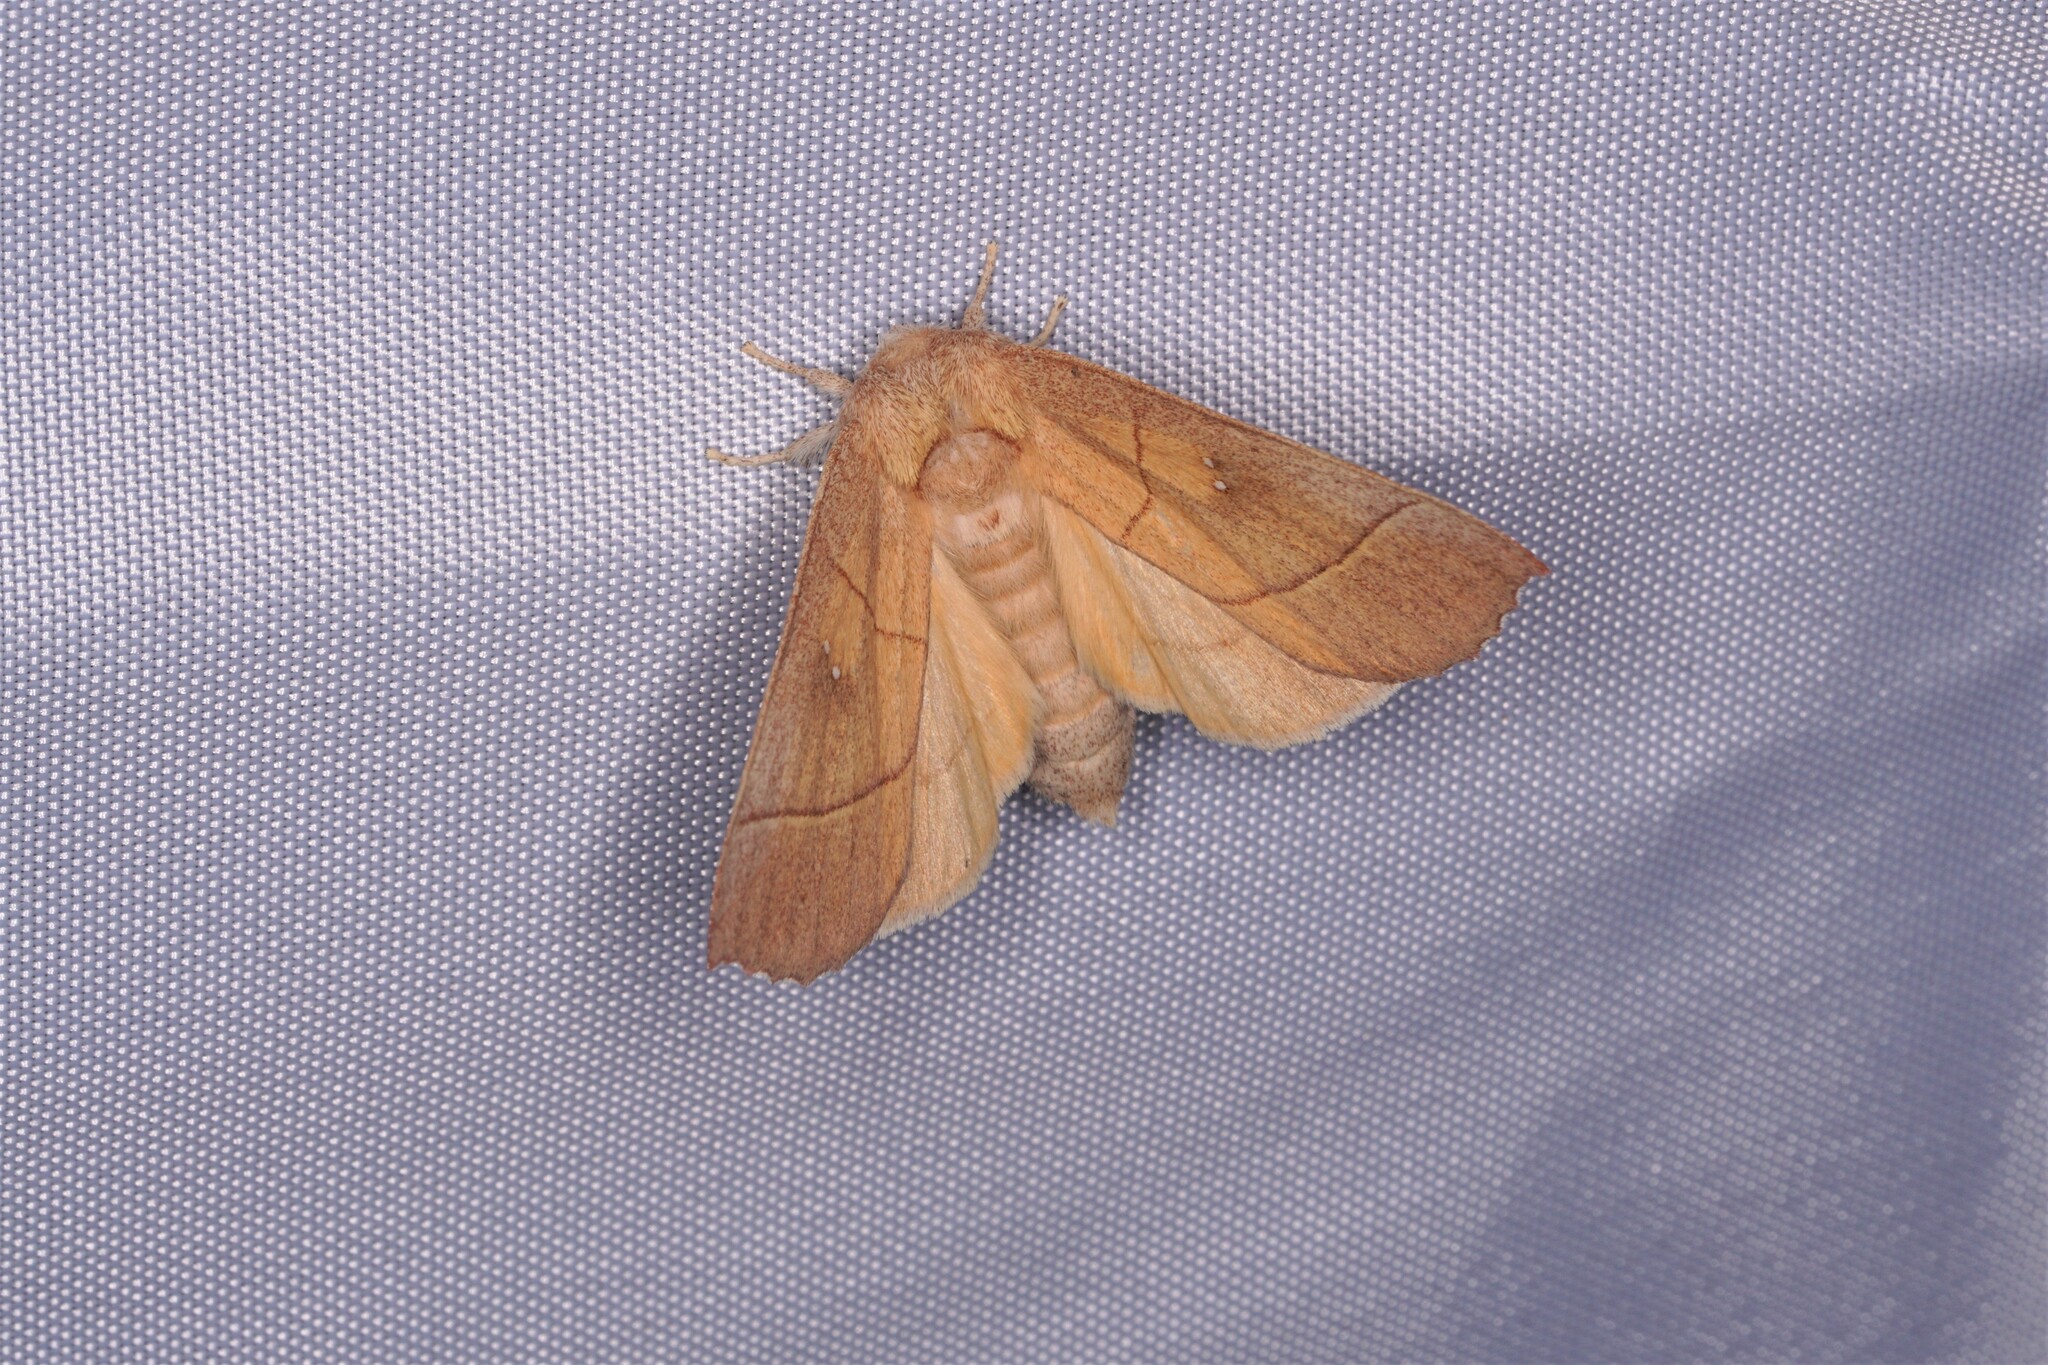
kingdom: Animalia
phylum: Arthropoda
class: Insecta
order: Lepidoptera
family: Notodontidae
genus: Nadata
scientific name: Nadata gibbosa
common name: White-dotted prominent
